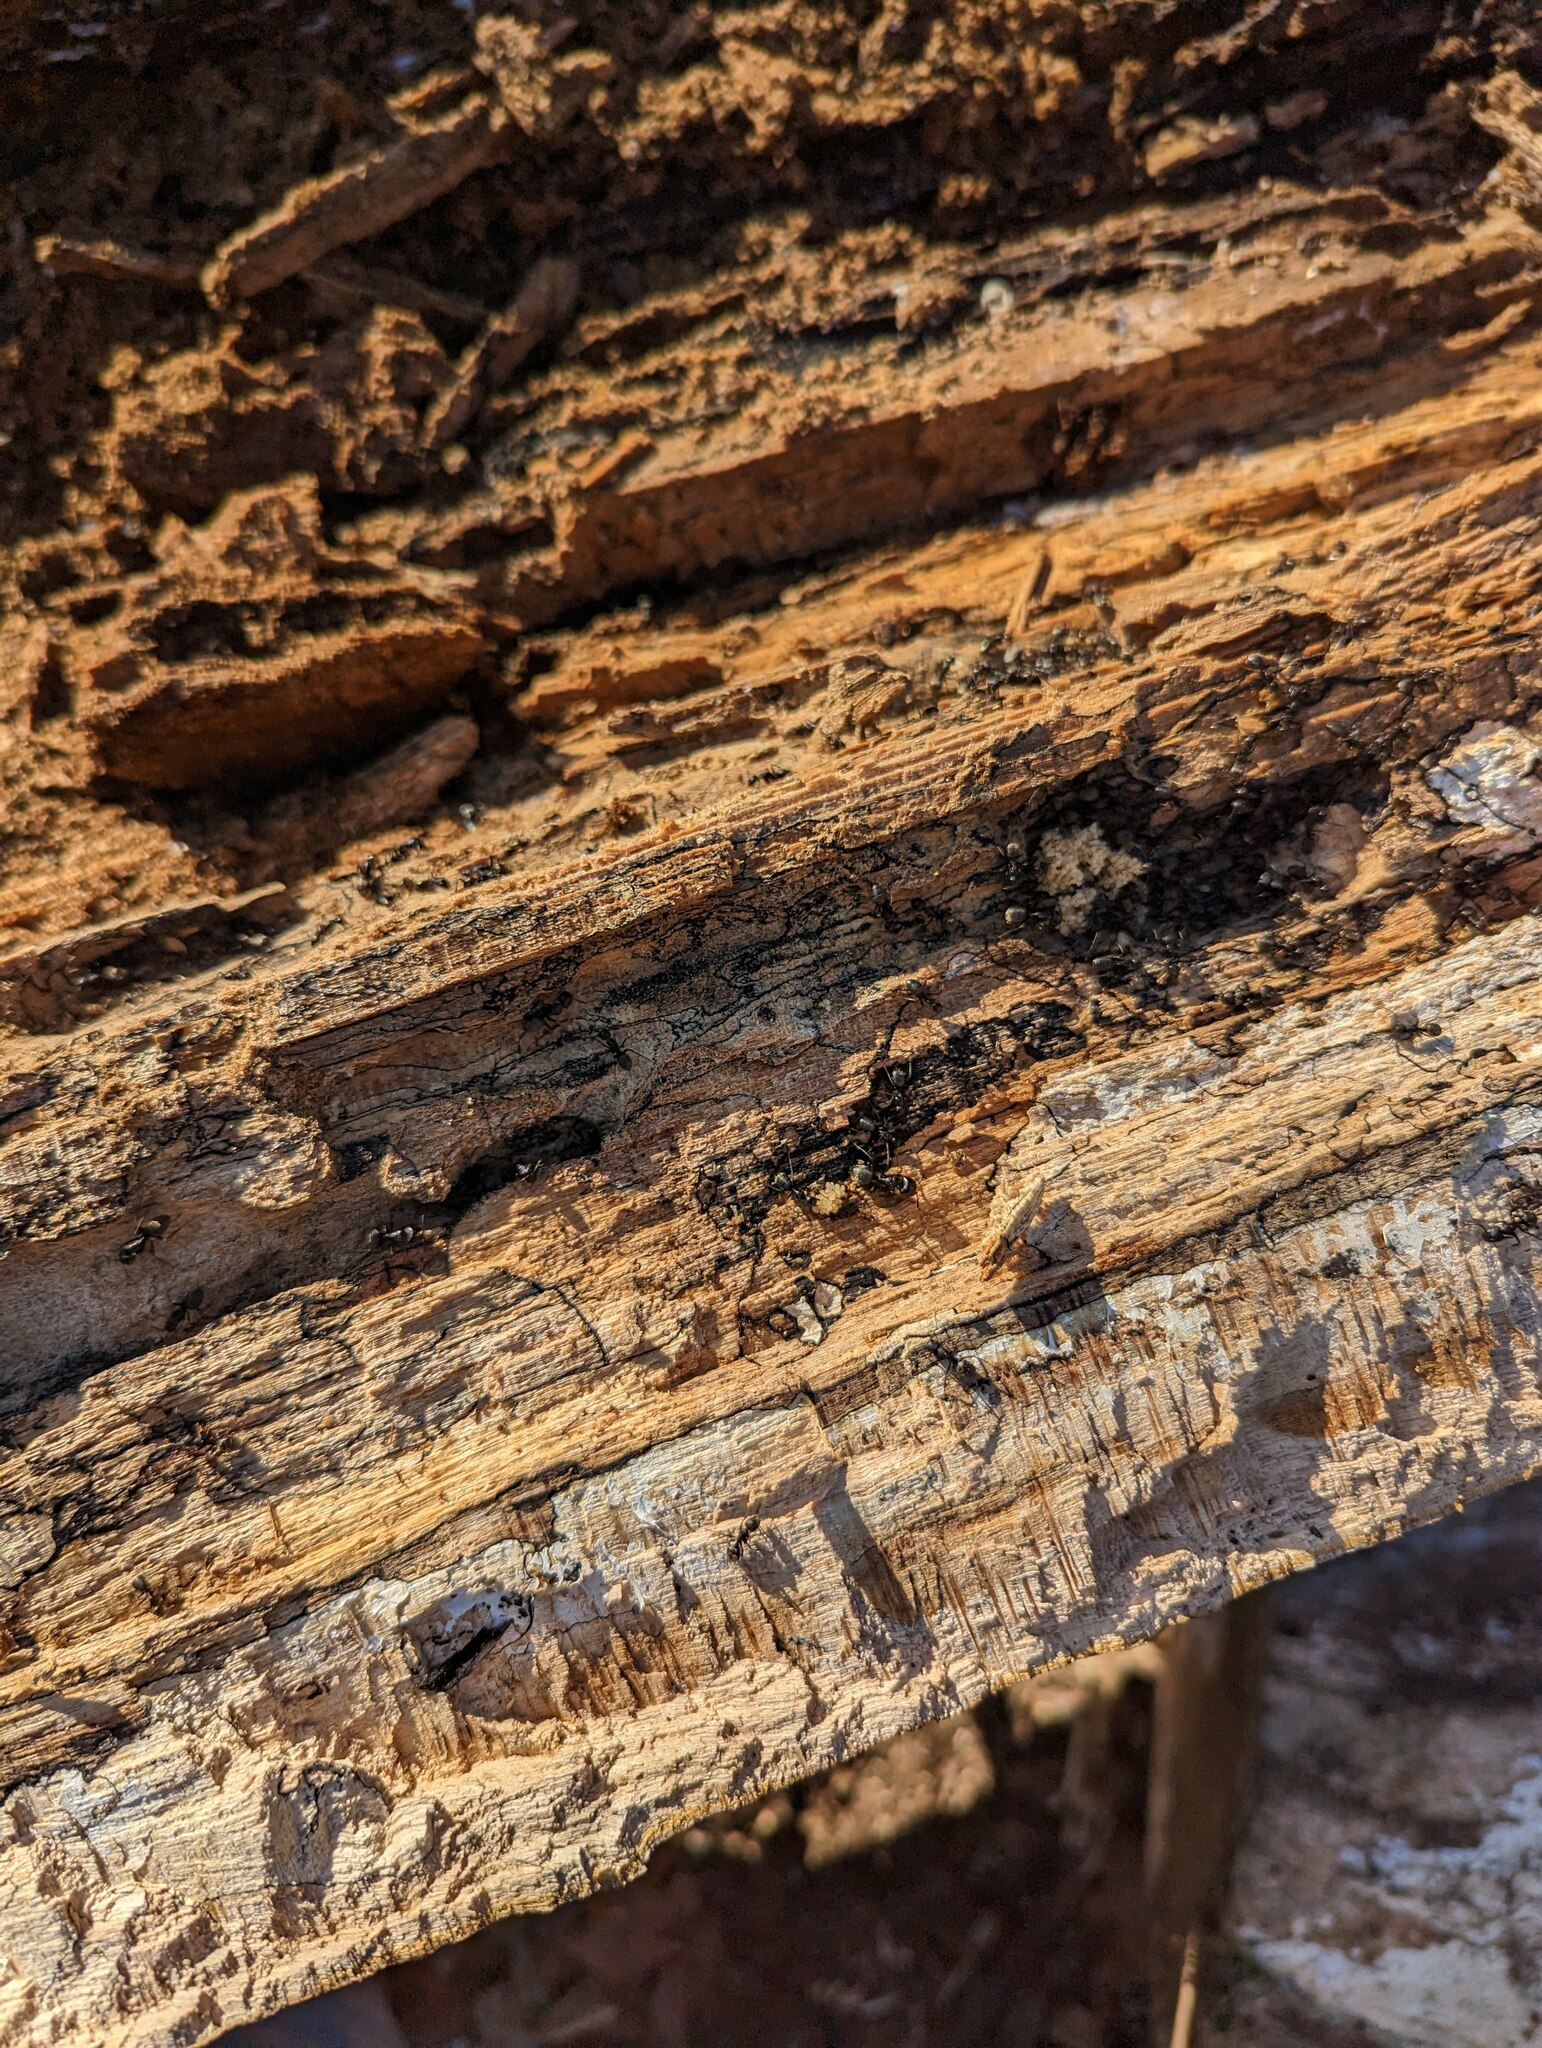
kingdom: Animalia
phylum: Arthropoda
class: Insecta
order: Hymenoptera
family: Formicidae
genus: Camponotus
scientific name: Camponotus pennsylvanicus
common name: Black carpenter ant
